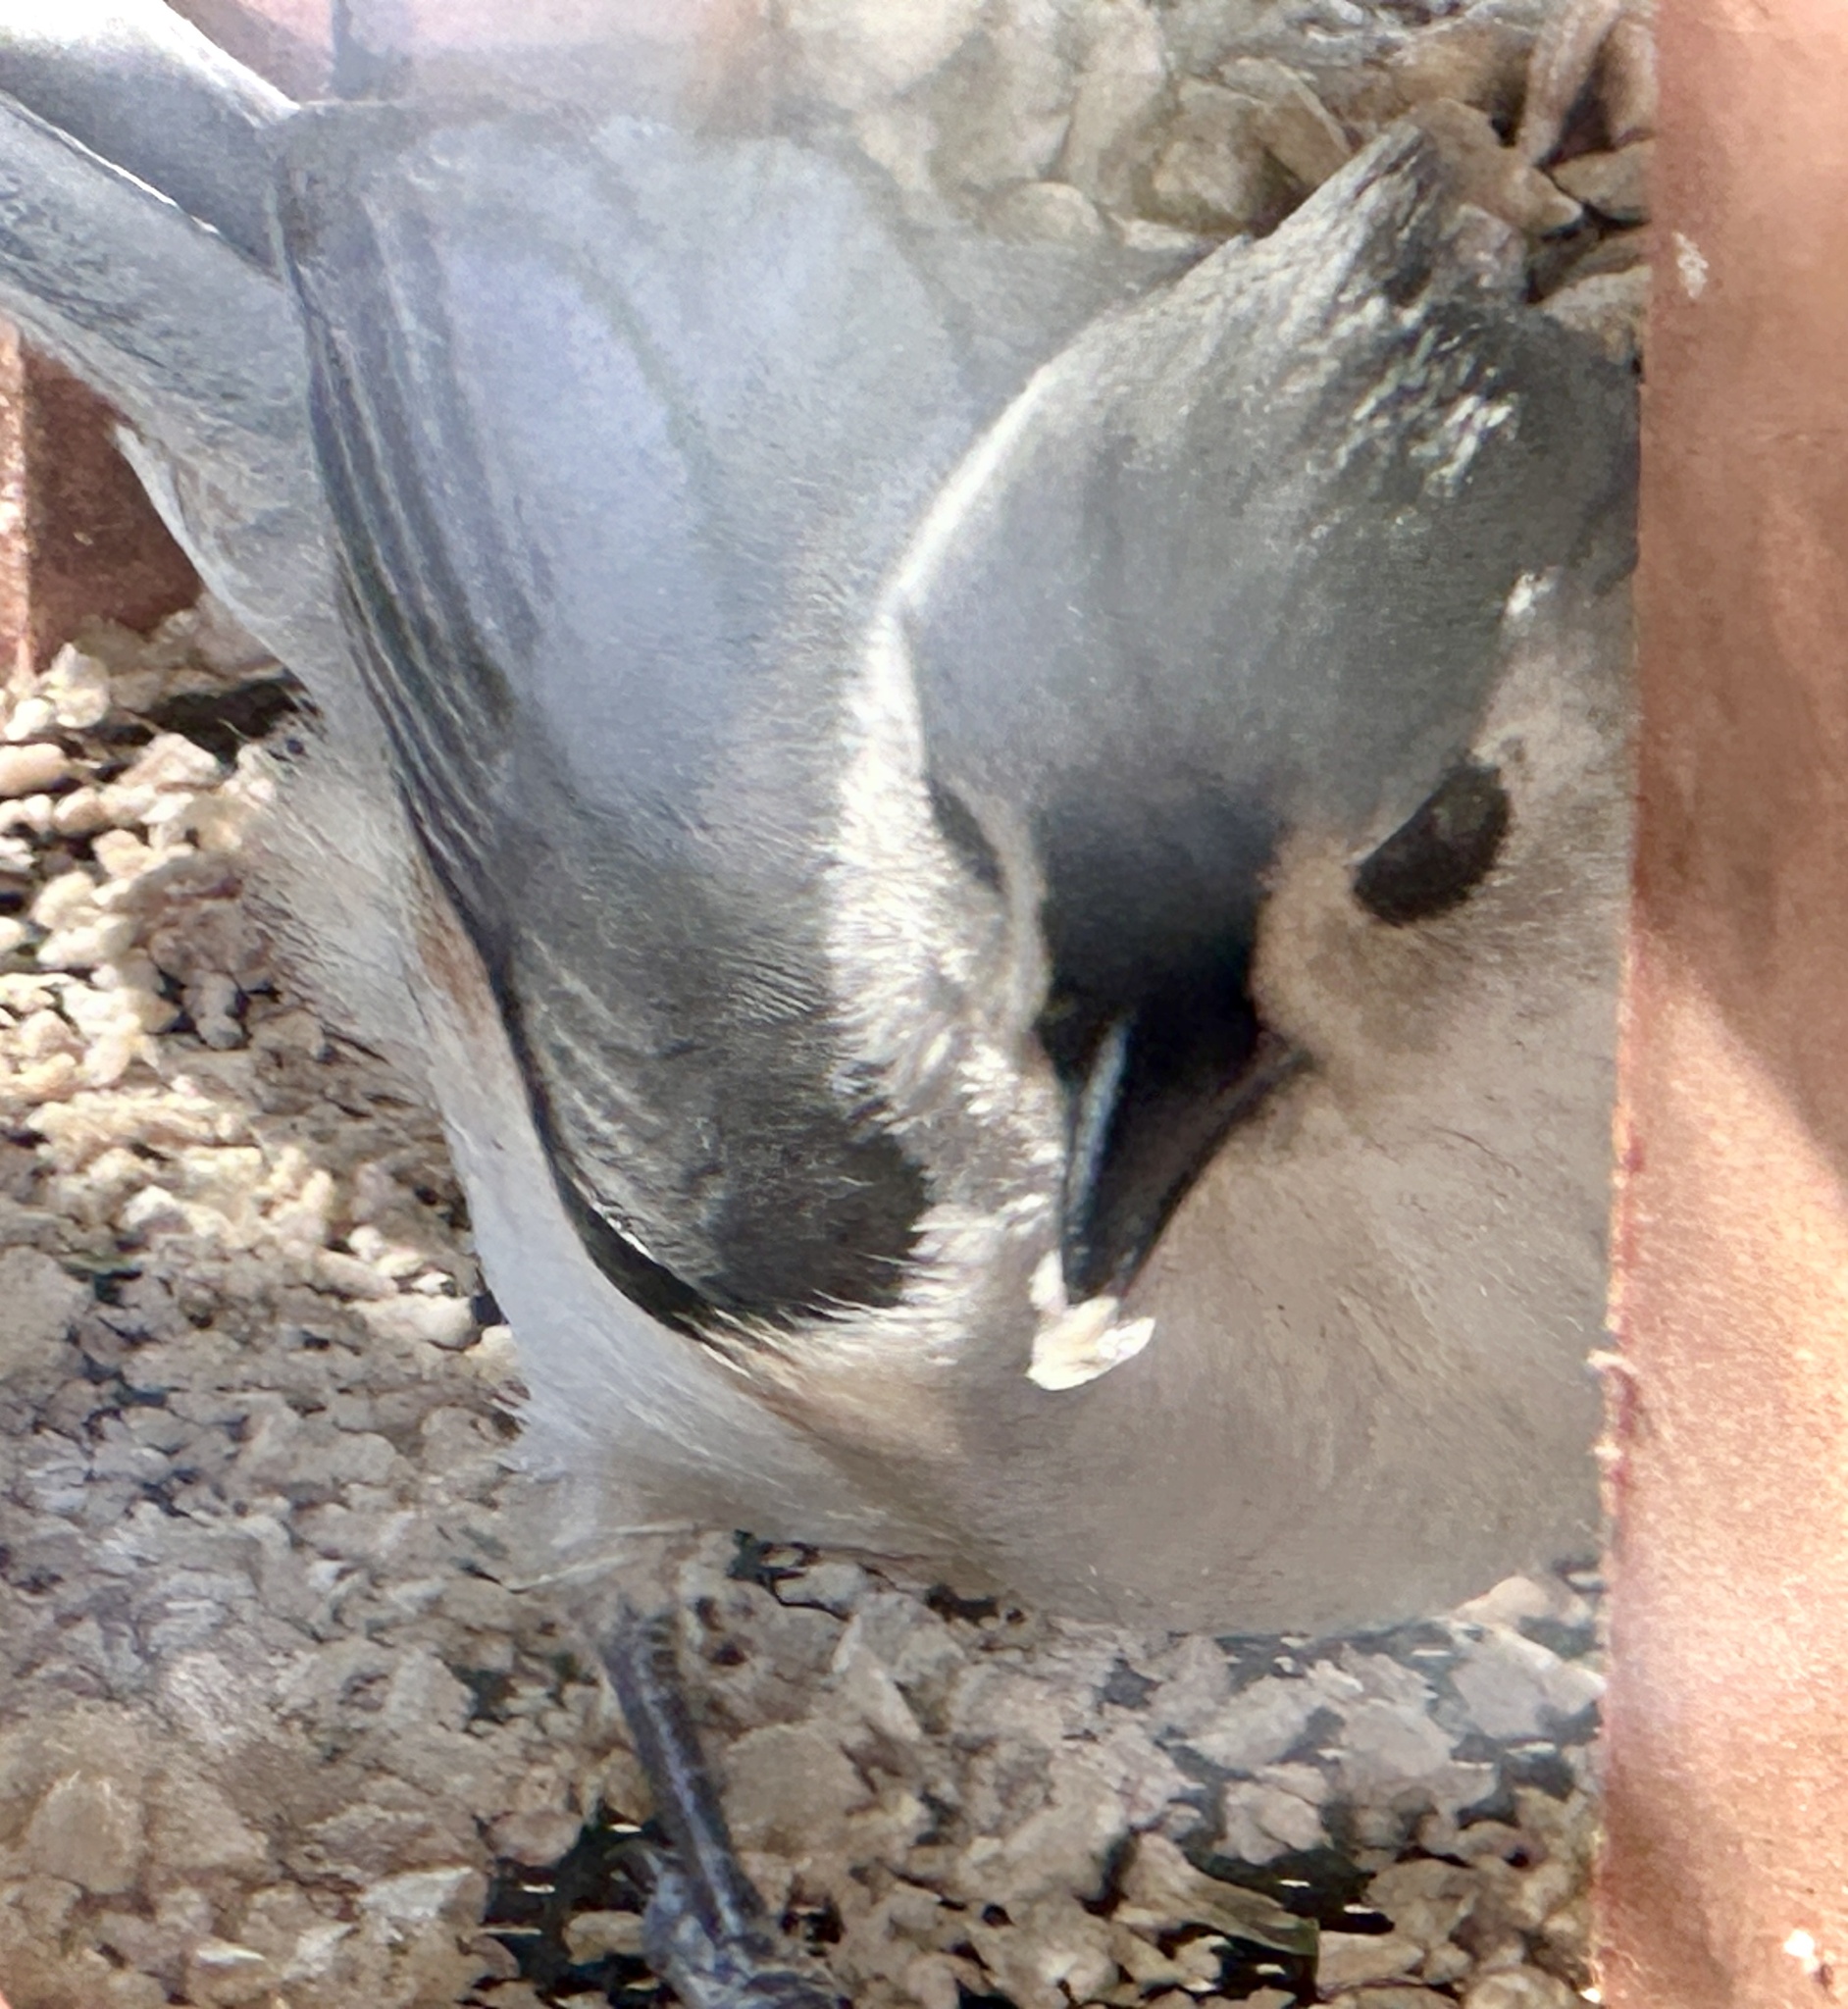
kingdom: Animalia
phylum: Chordata
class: Aves
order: Passeriformes
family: Paridae
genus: Baeolophus
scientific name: Baeolophus bicolor
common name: Tufted titmouse
